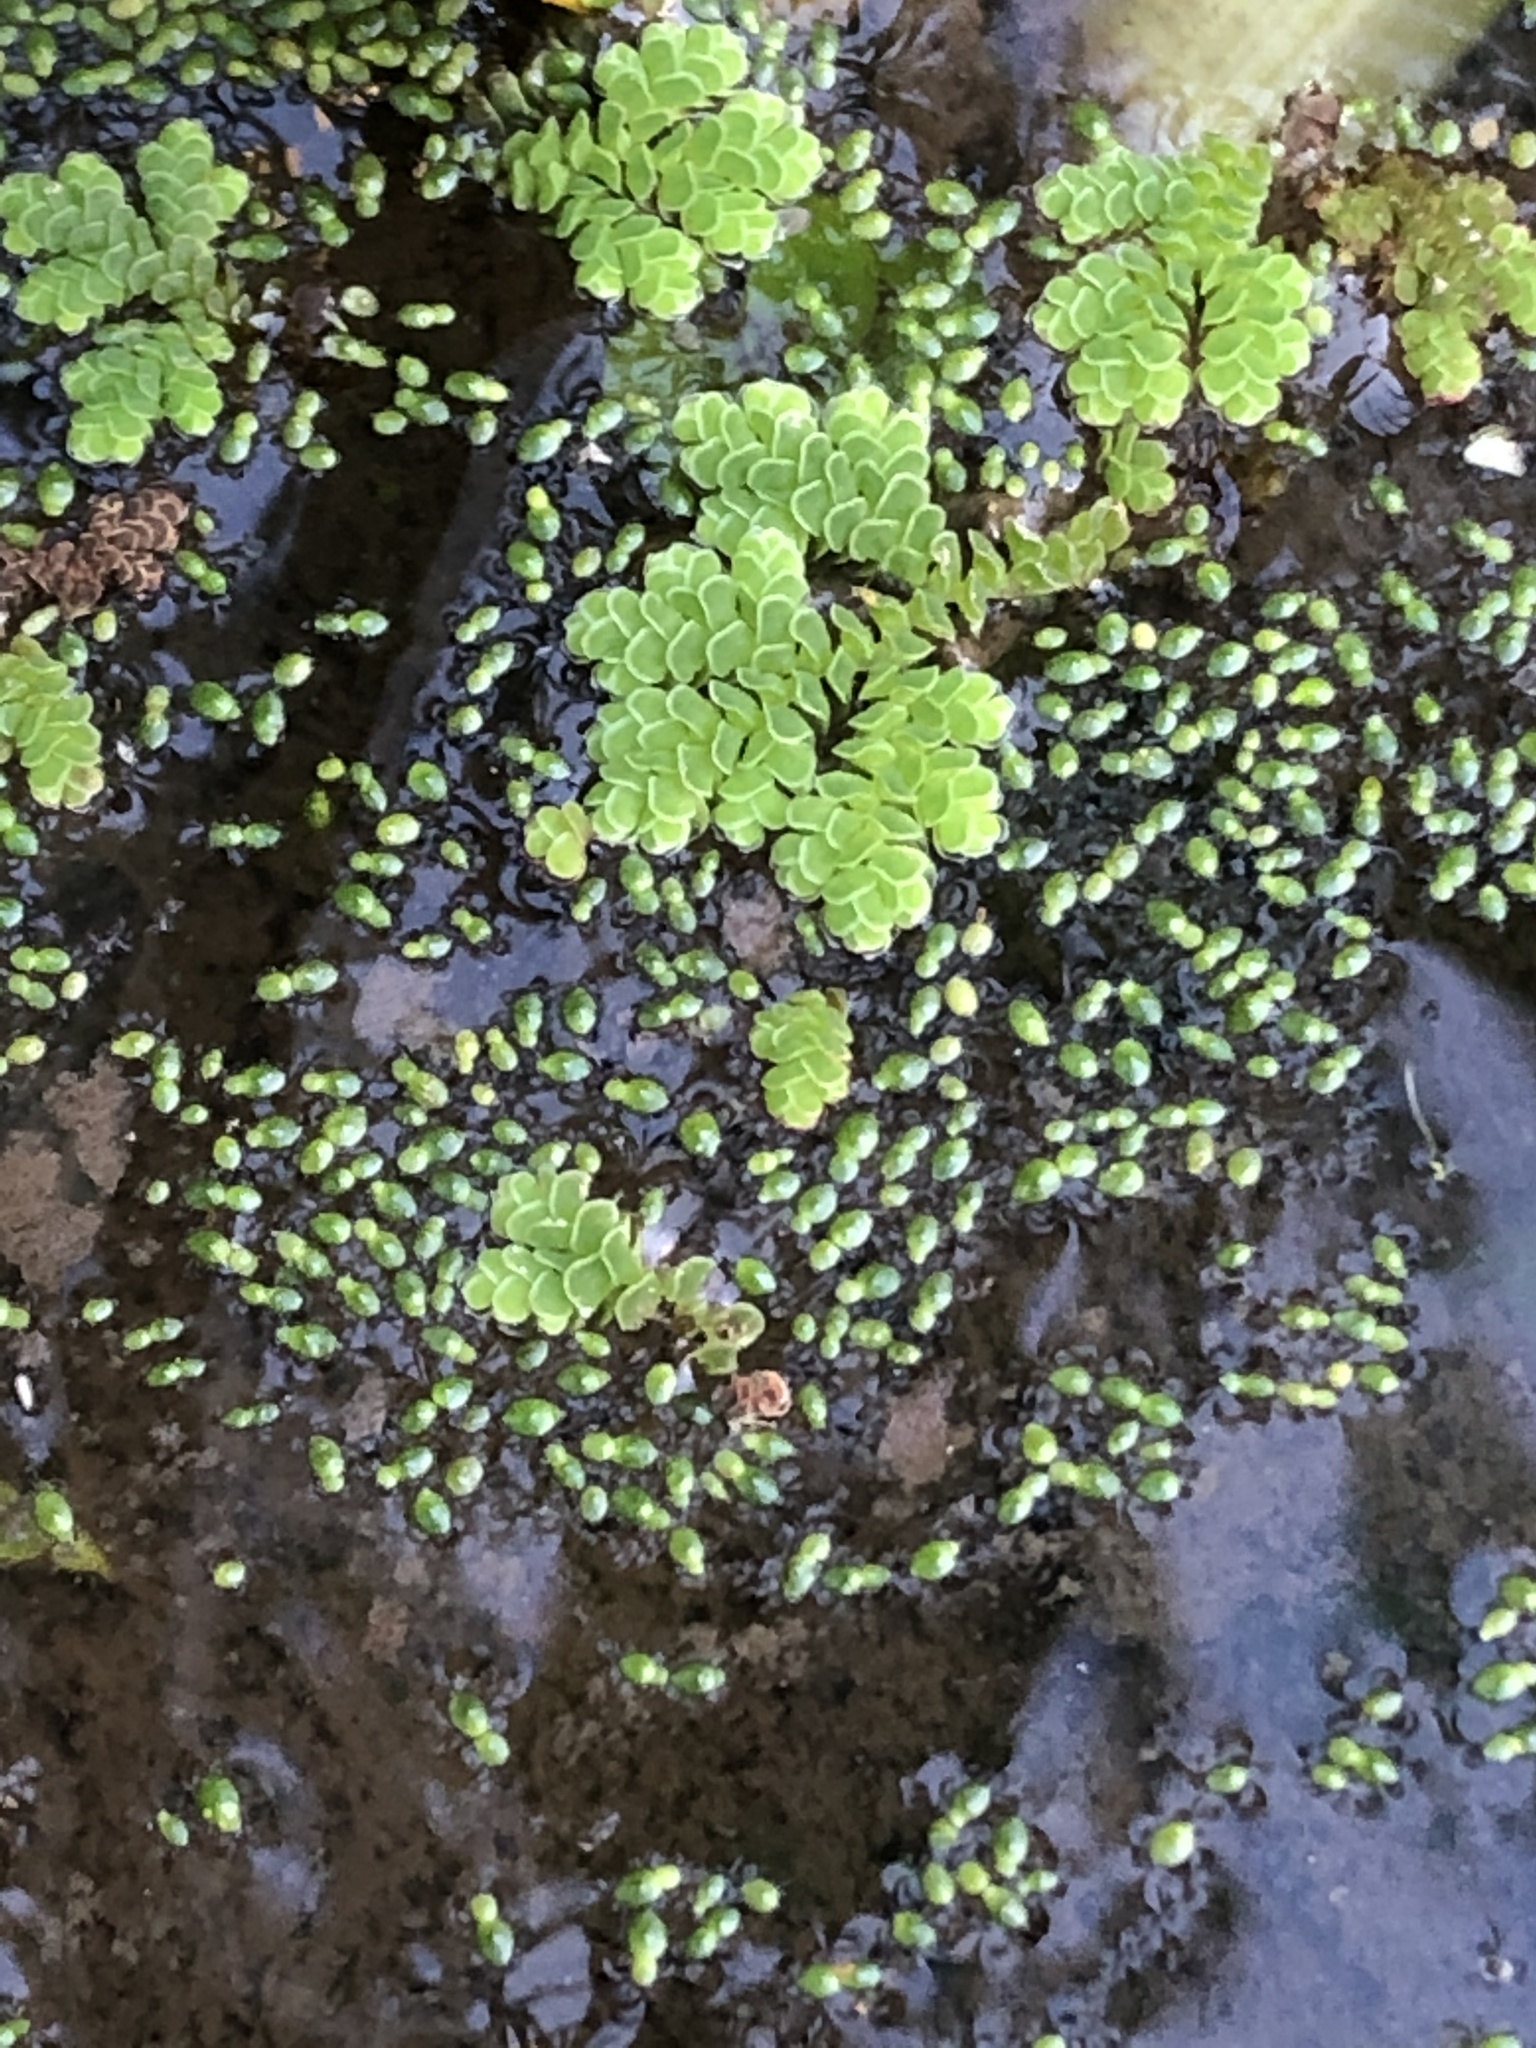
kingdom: Plantae
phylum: Tracheophyta
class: Polypodiopsida
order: Salviniales
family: Salviniaceae
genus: Azolla
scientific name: Azolla filiculoides
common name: Water fern
